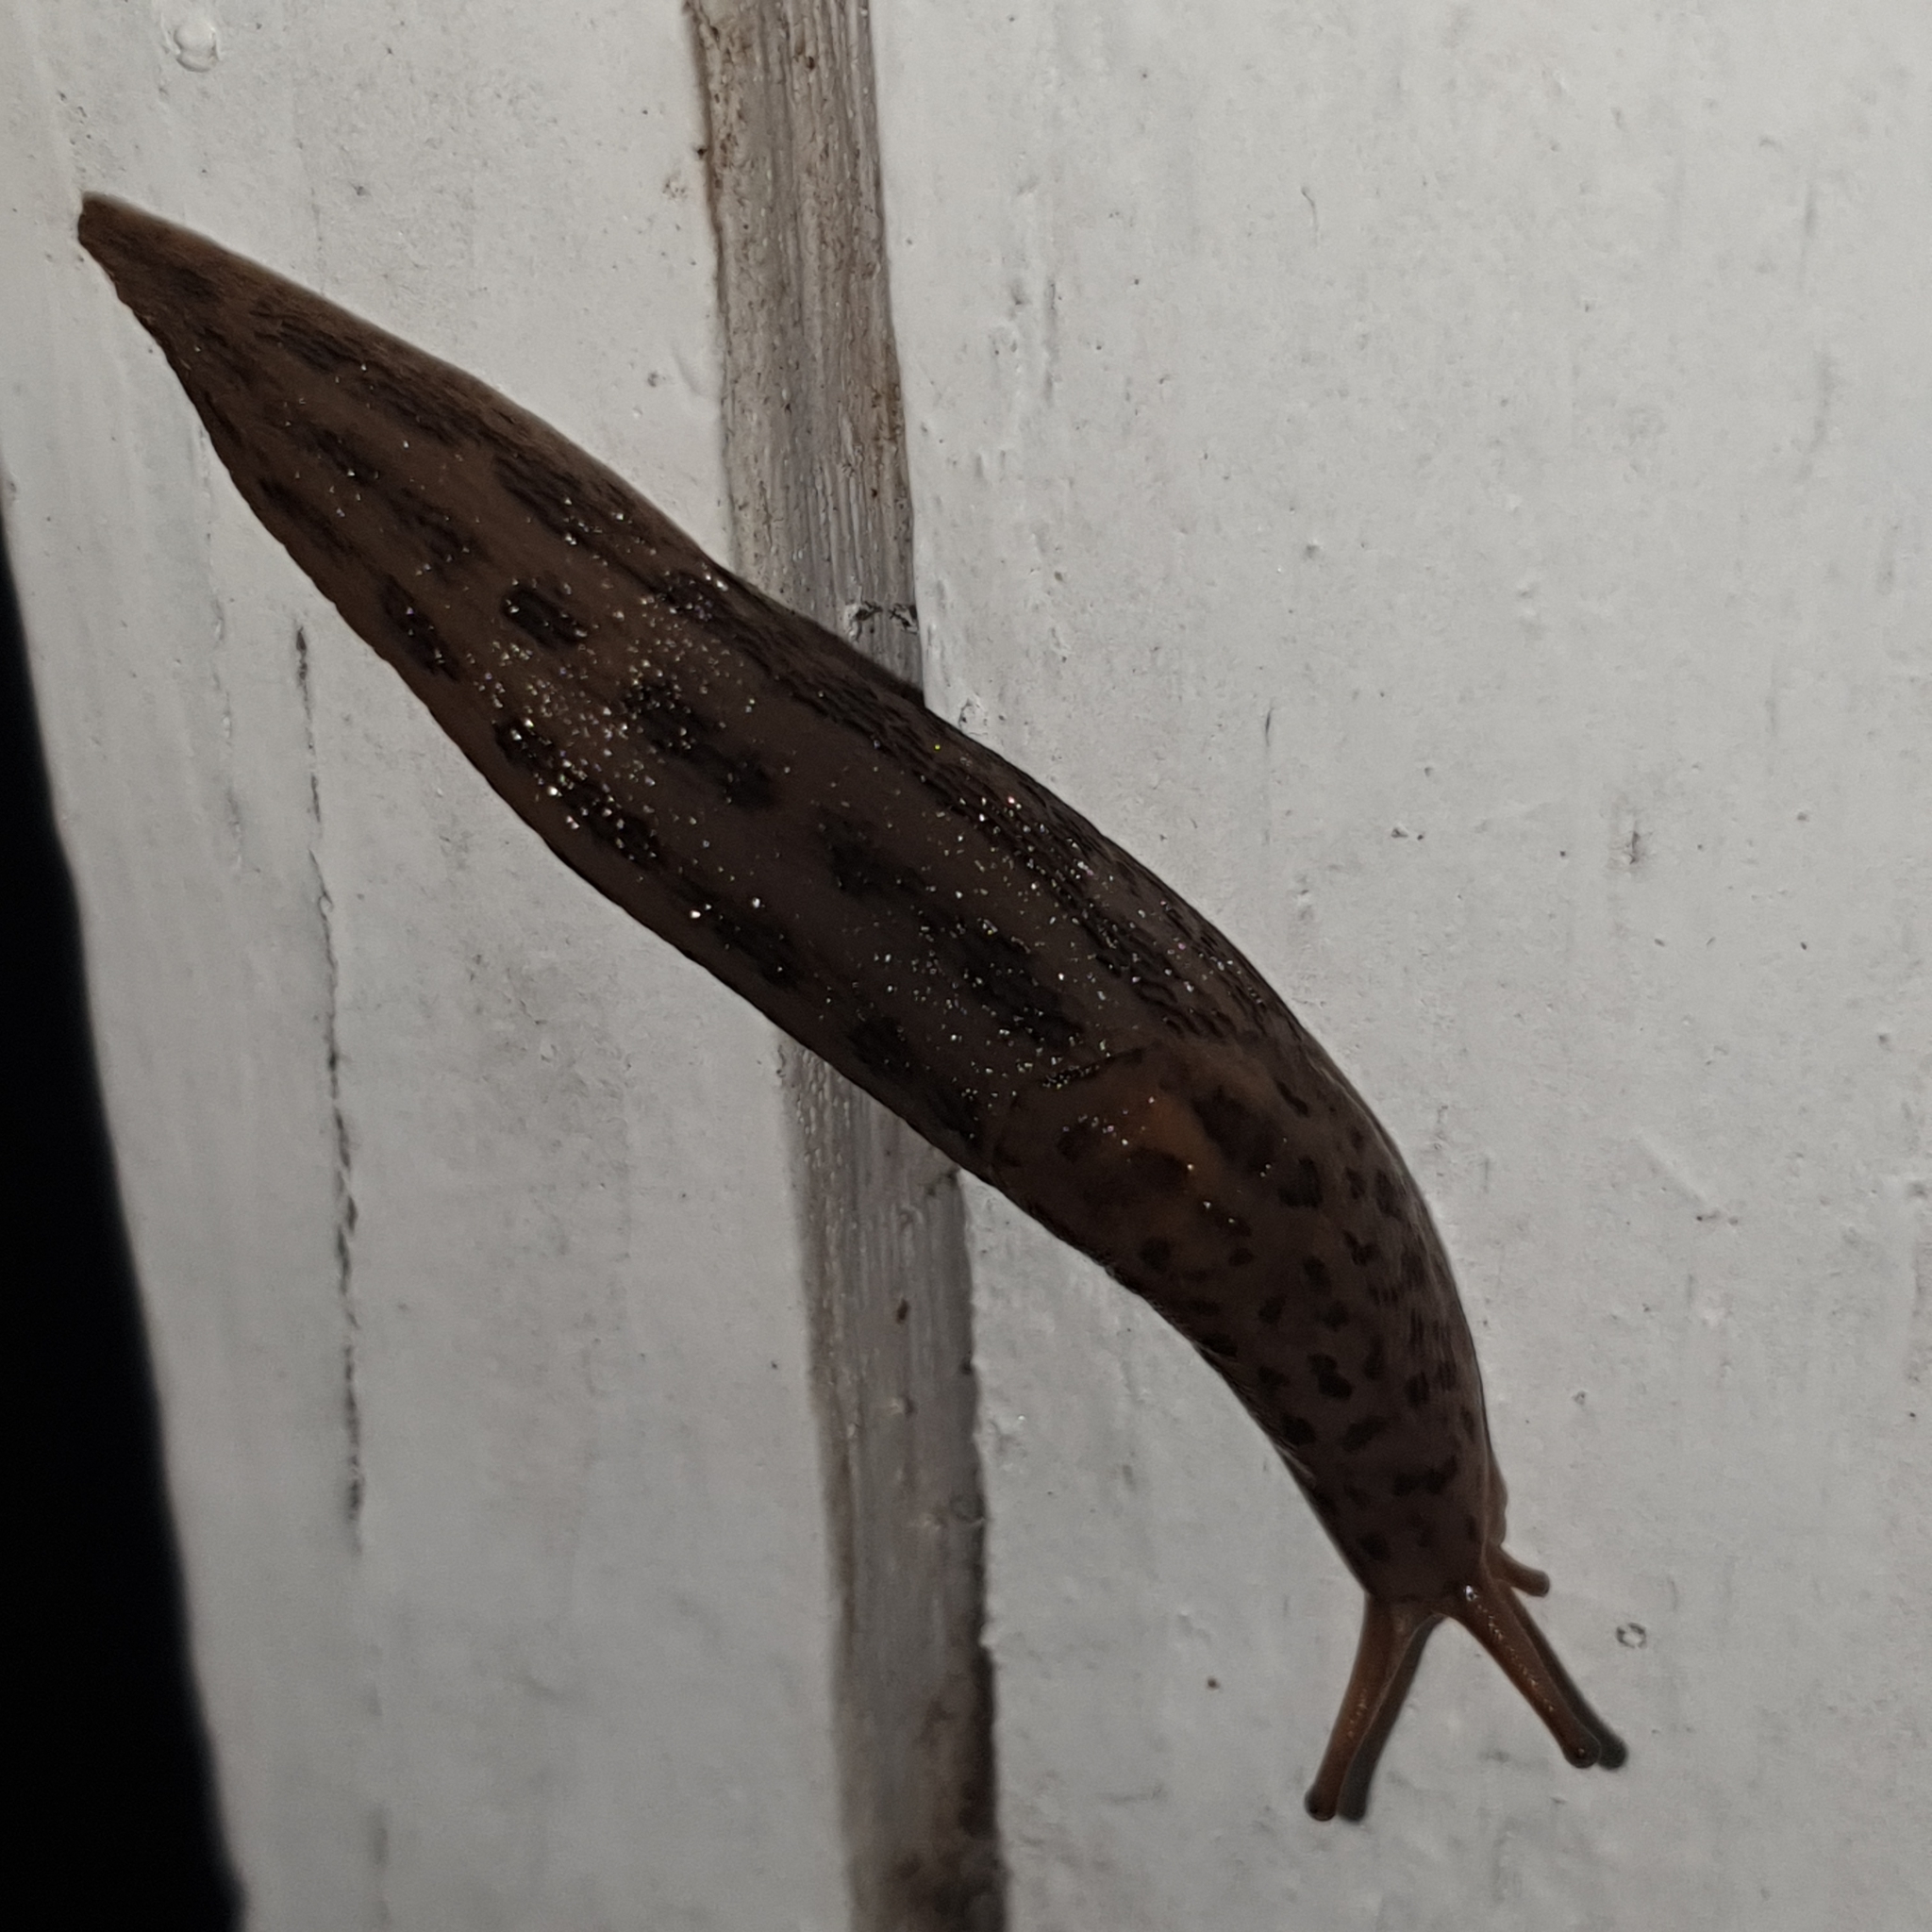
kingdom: Animalia
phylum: Mollusca
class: Gastropoda
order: Stylommatophora
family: Limacidae
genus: Limax
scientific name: Limax maximus
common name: Great grey slug
